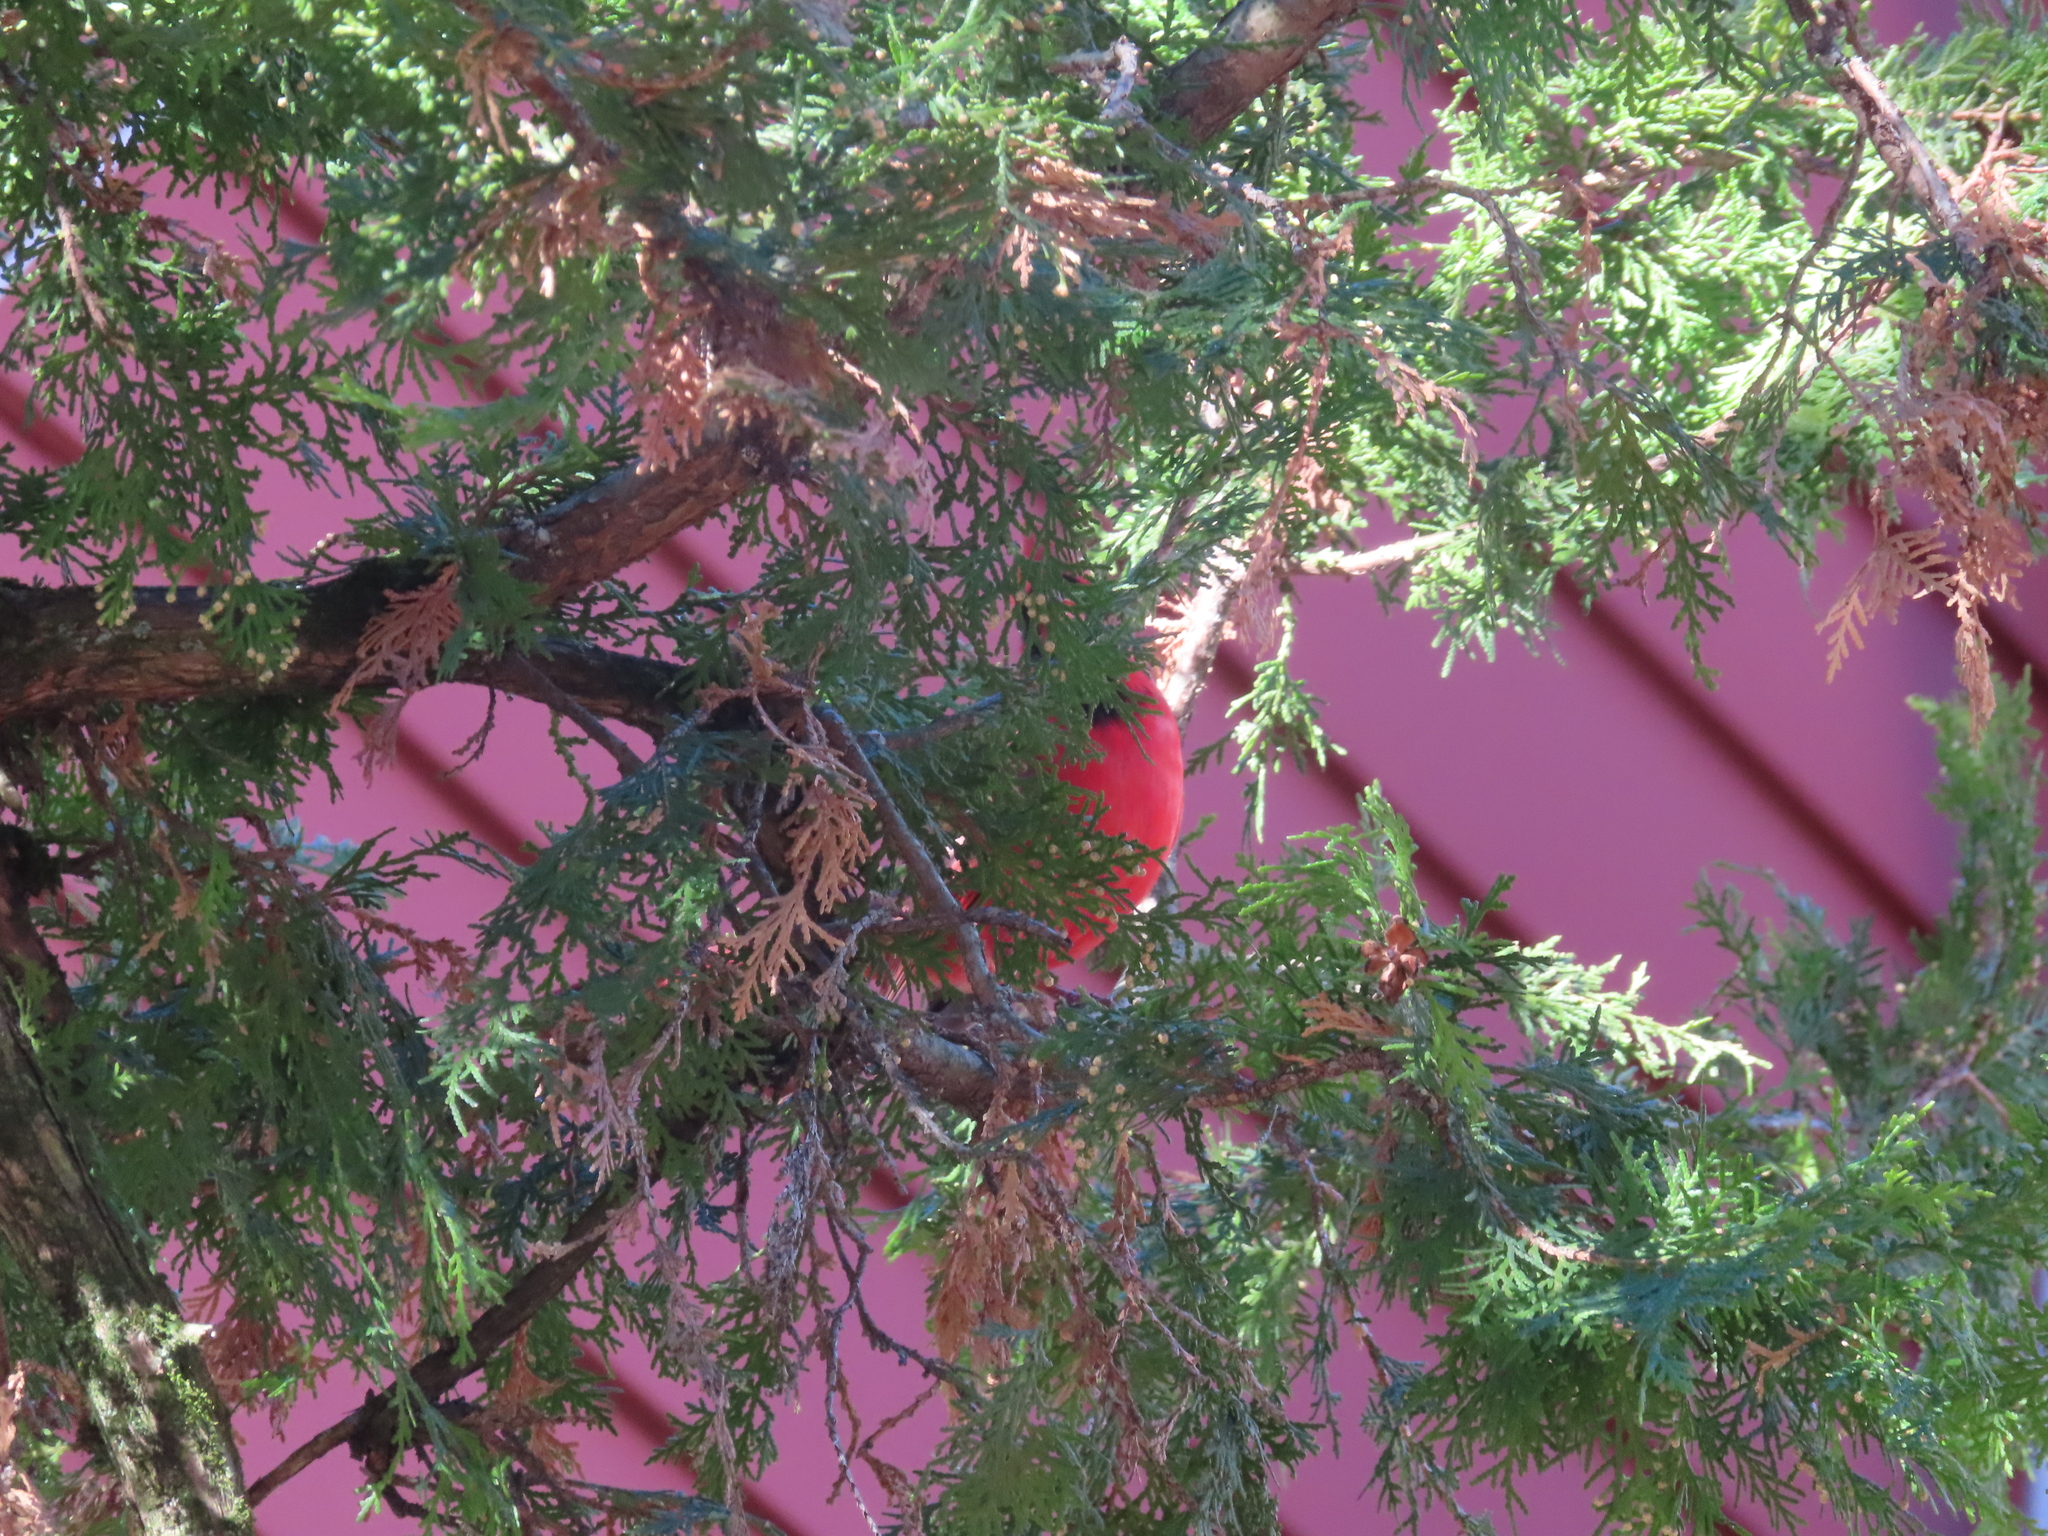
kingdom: Animalia
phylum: Chordata
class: Aves
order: Passeriformes
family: Cardinalidae
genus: Cardinalis
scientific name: Cardinalis cardinalis
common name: Northern cardinal
